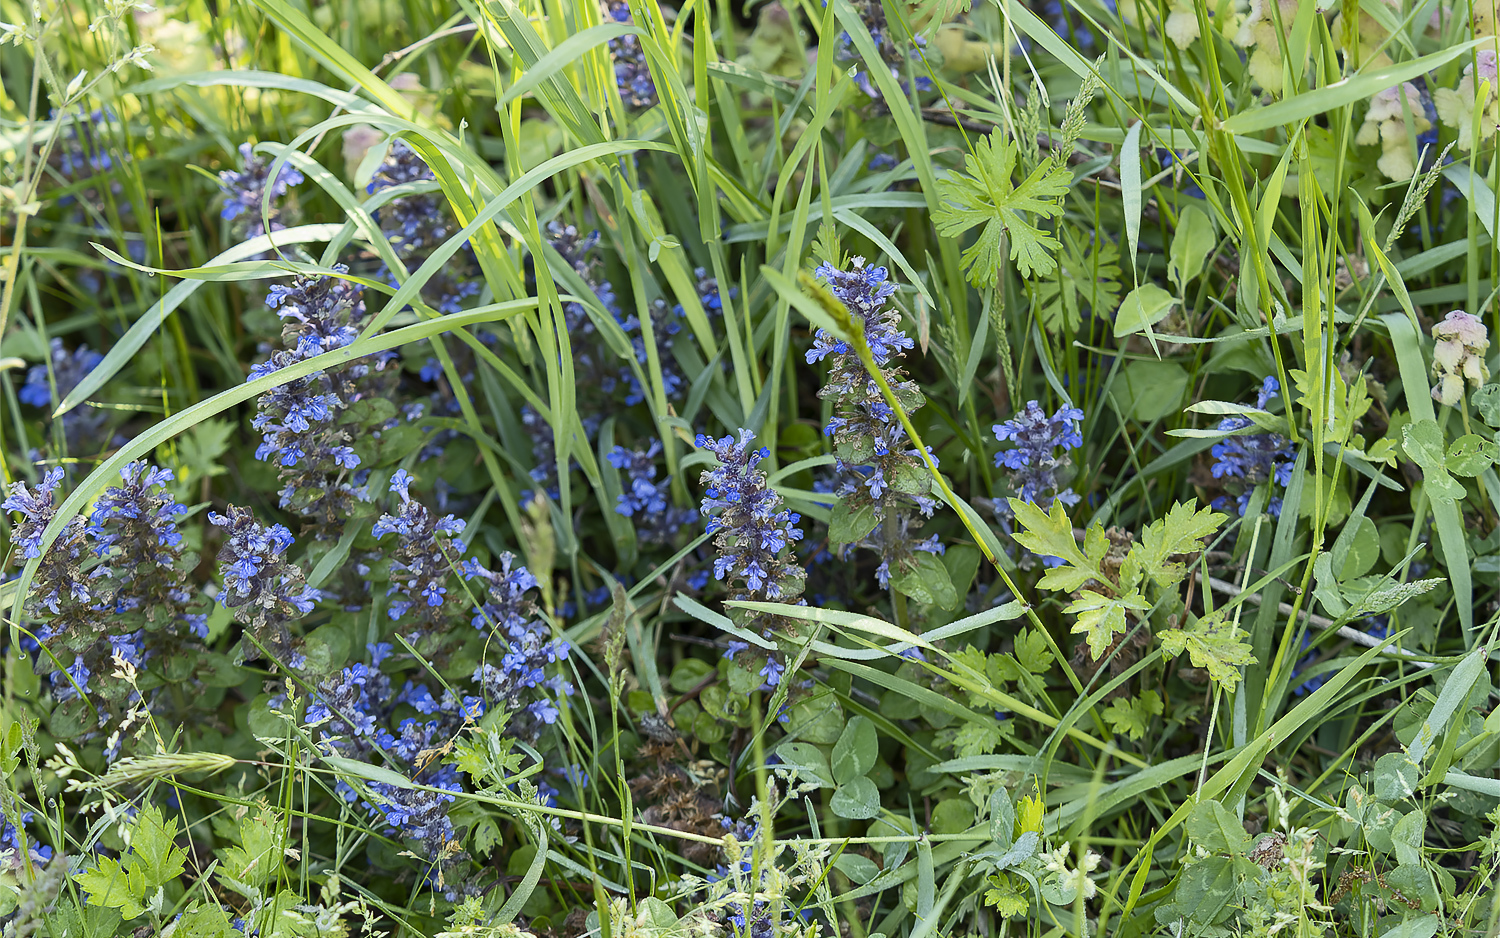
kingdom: Plantae
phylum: Tracheophyta
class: Magnoliopsida
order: Lamiales
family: Lamiaceae
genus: Ajuga
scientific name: Ajuga reptans
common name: Bugle
